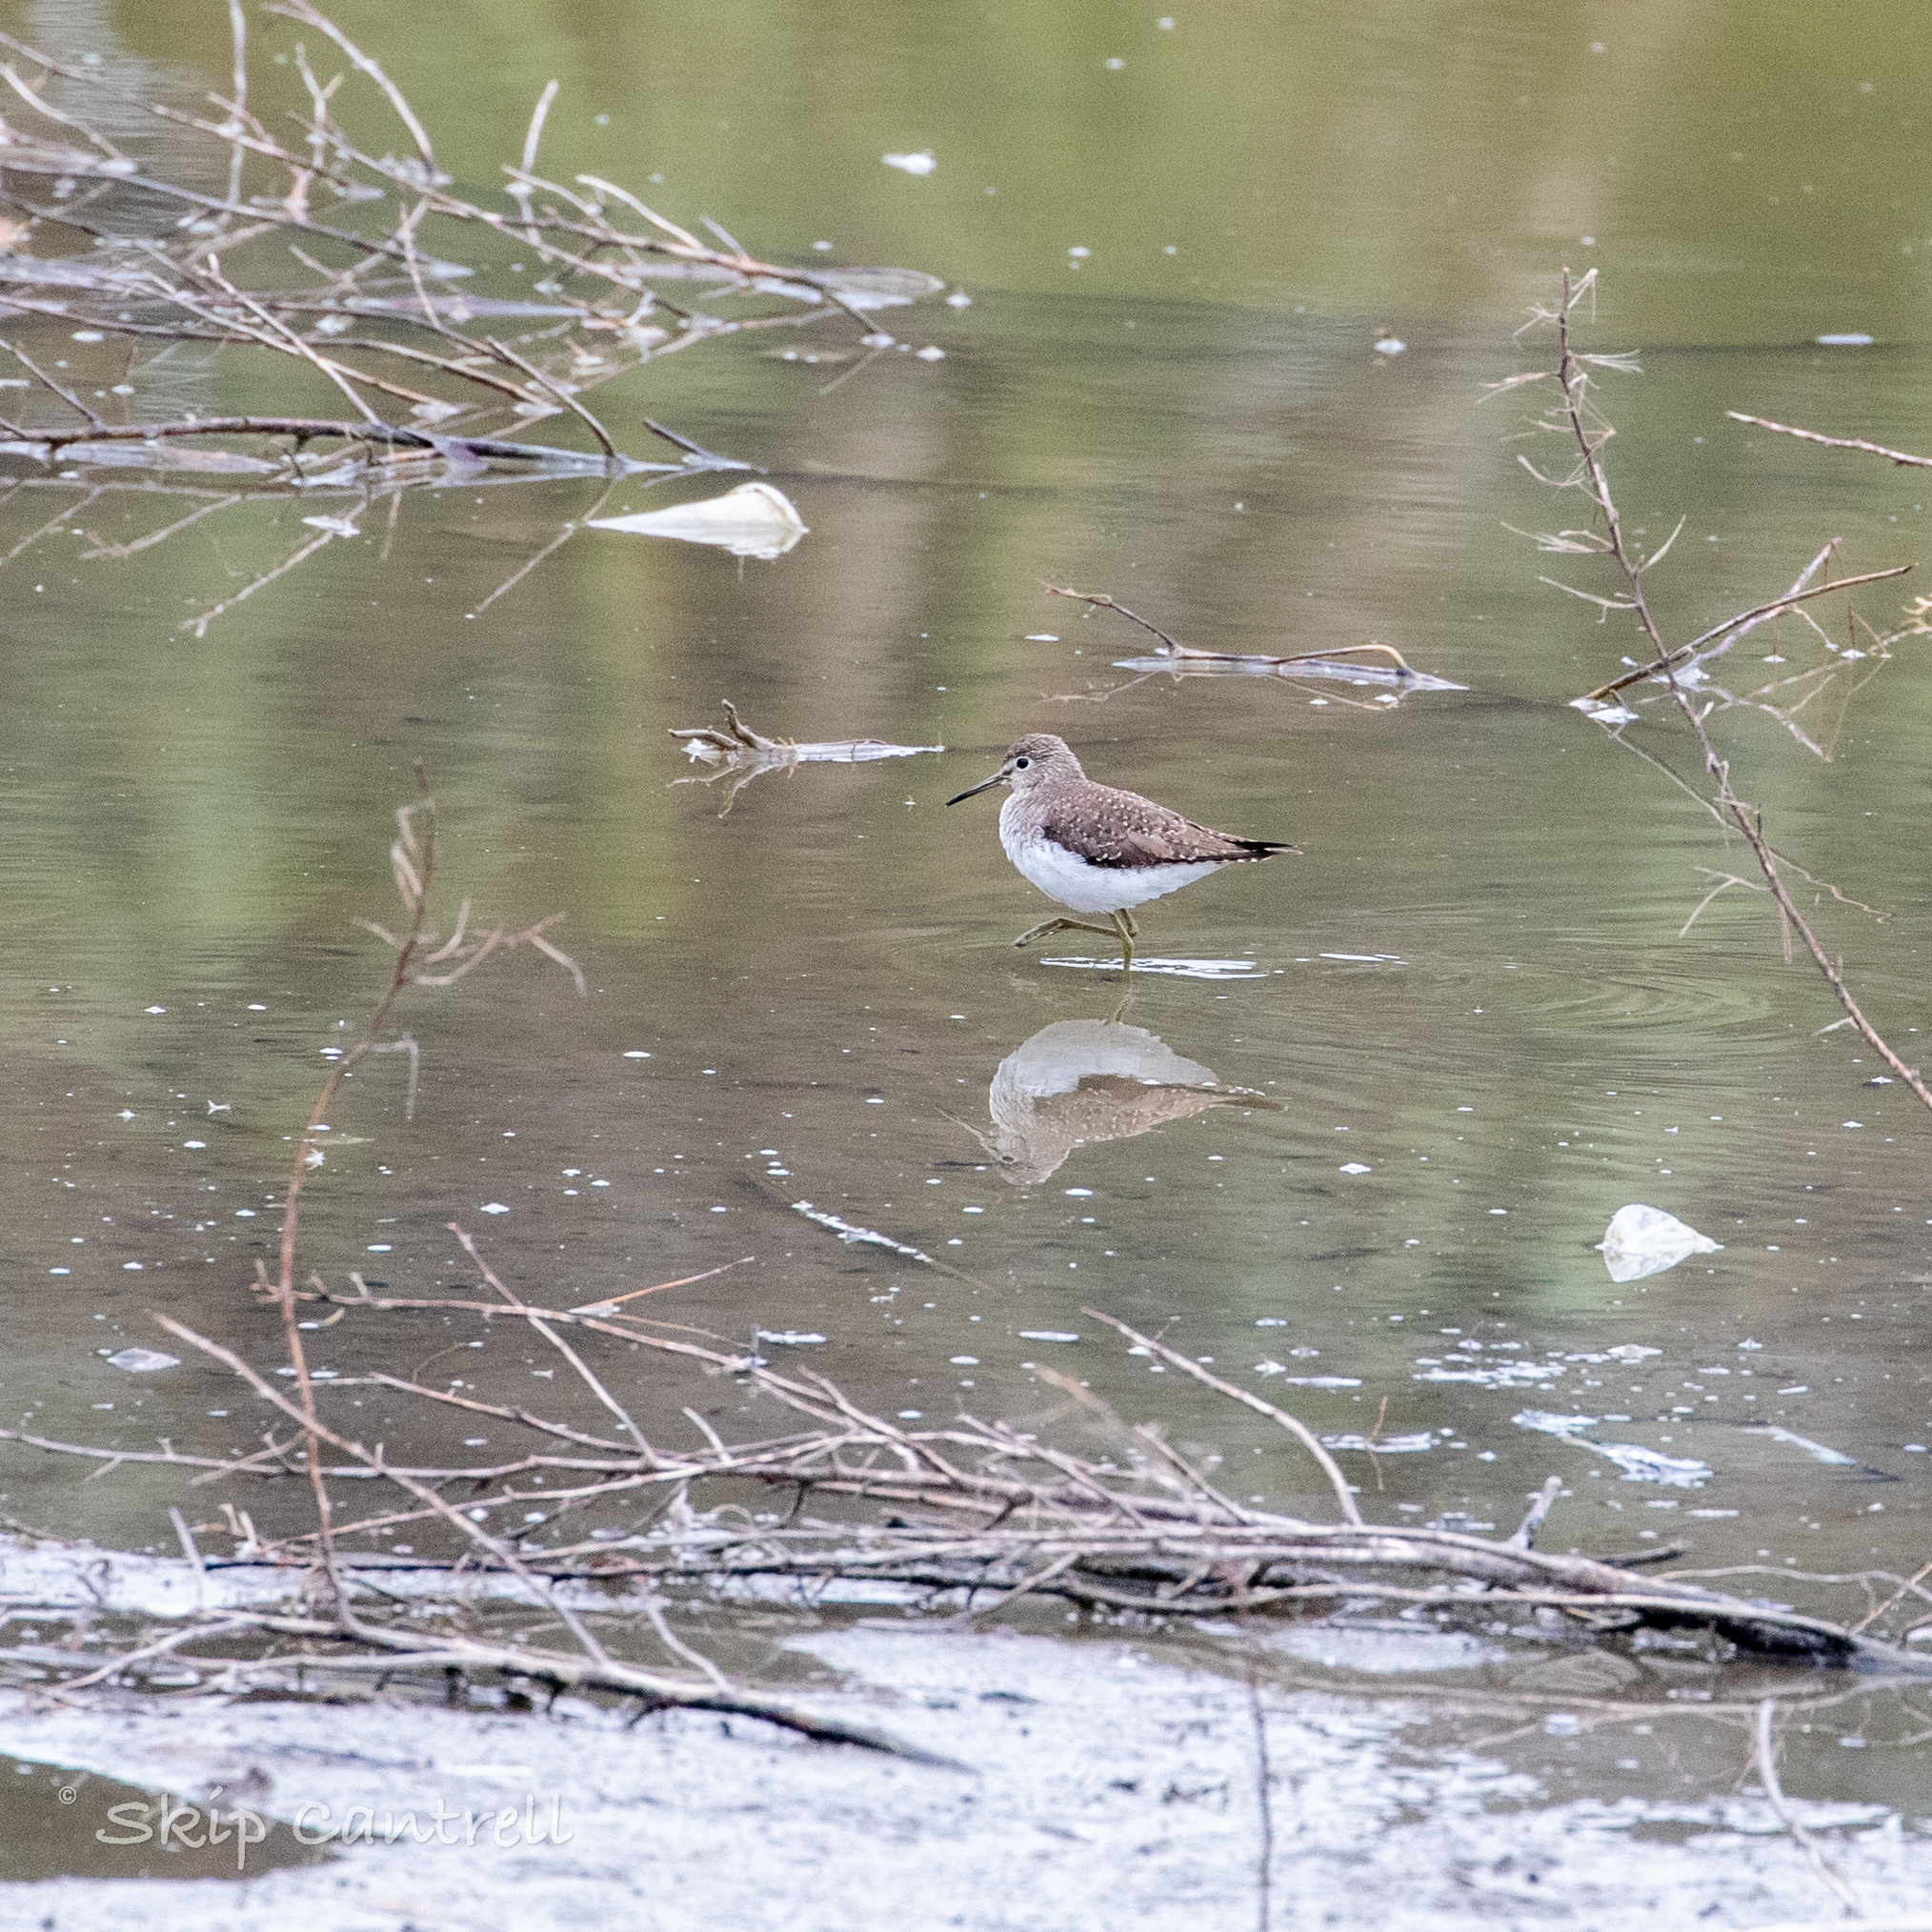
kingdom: Animalia
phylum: Chordata
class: Aves
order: Charadriiformes
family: Scolopacidae
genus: Tringa
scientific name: Tringa solitaria
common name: Solitary sandpiper
